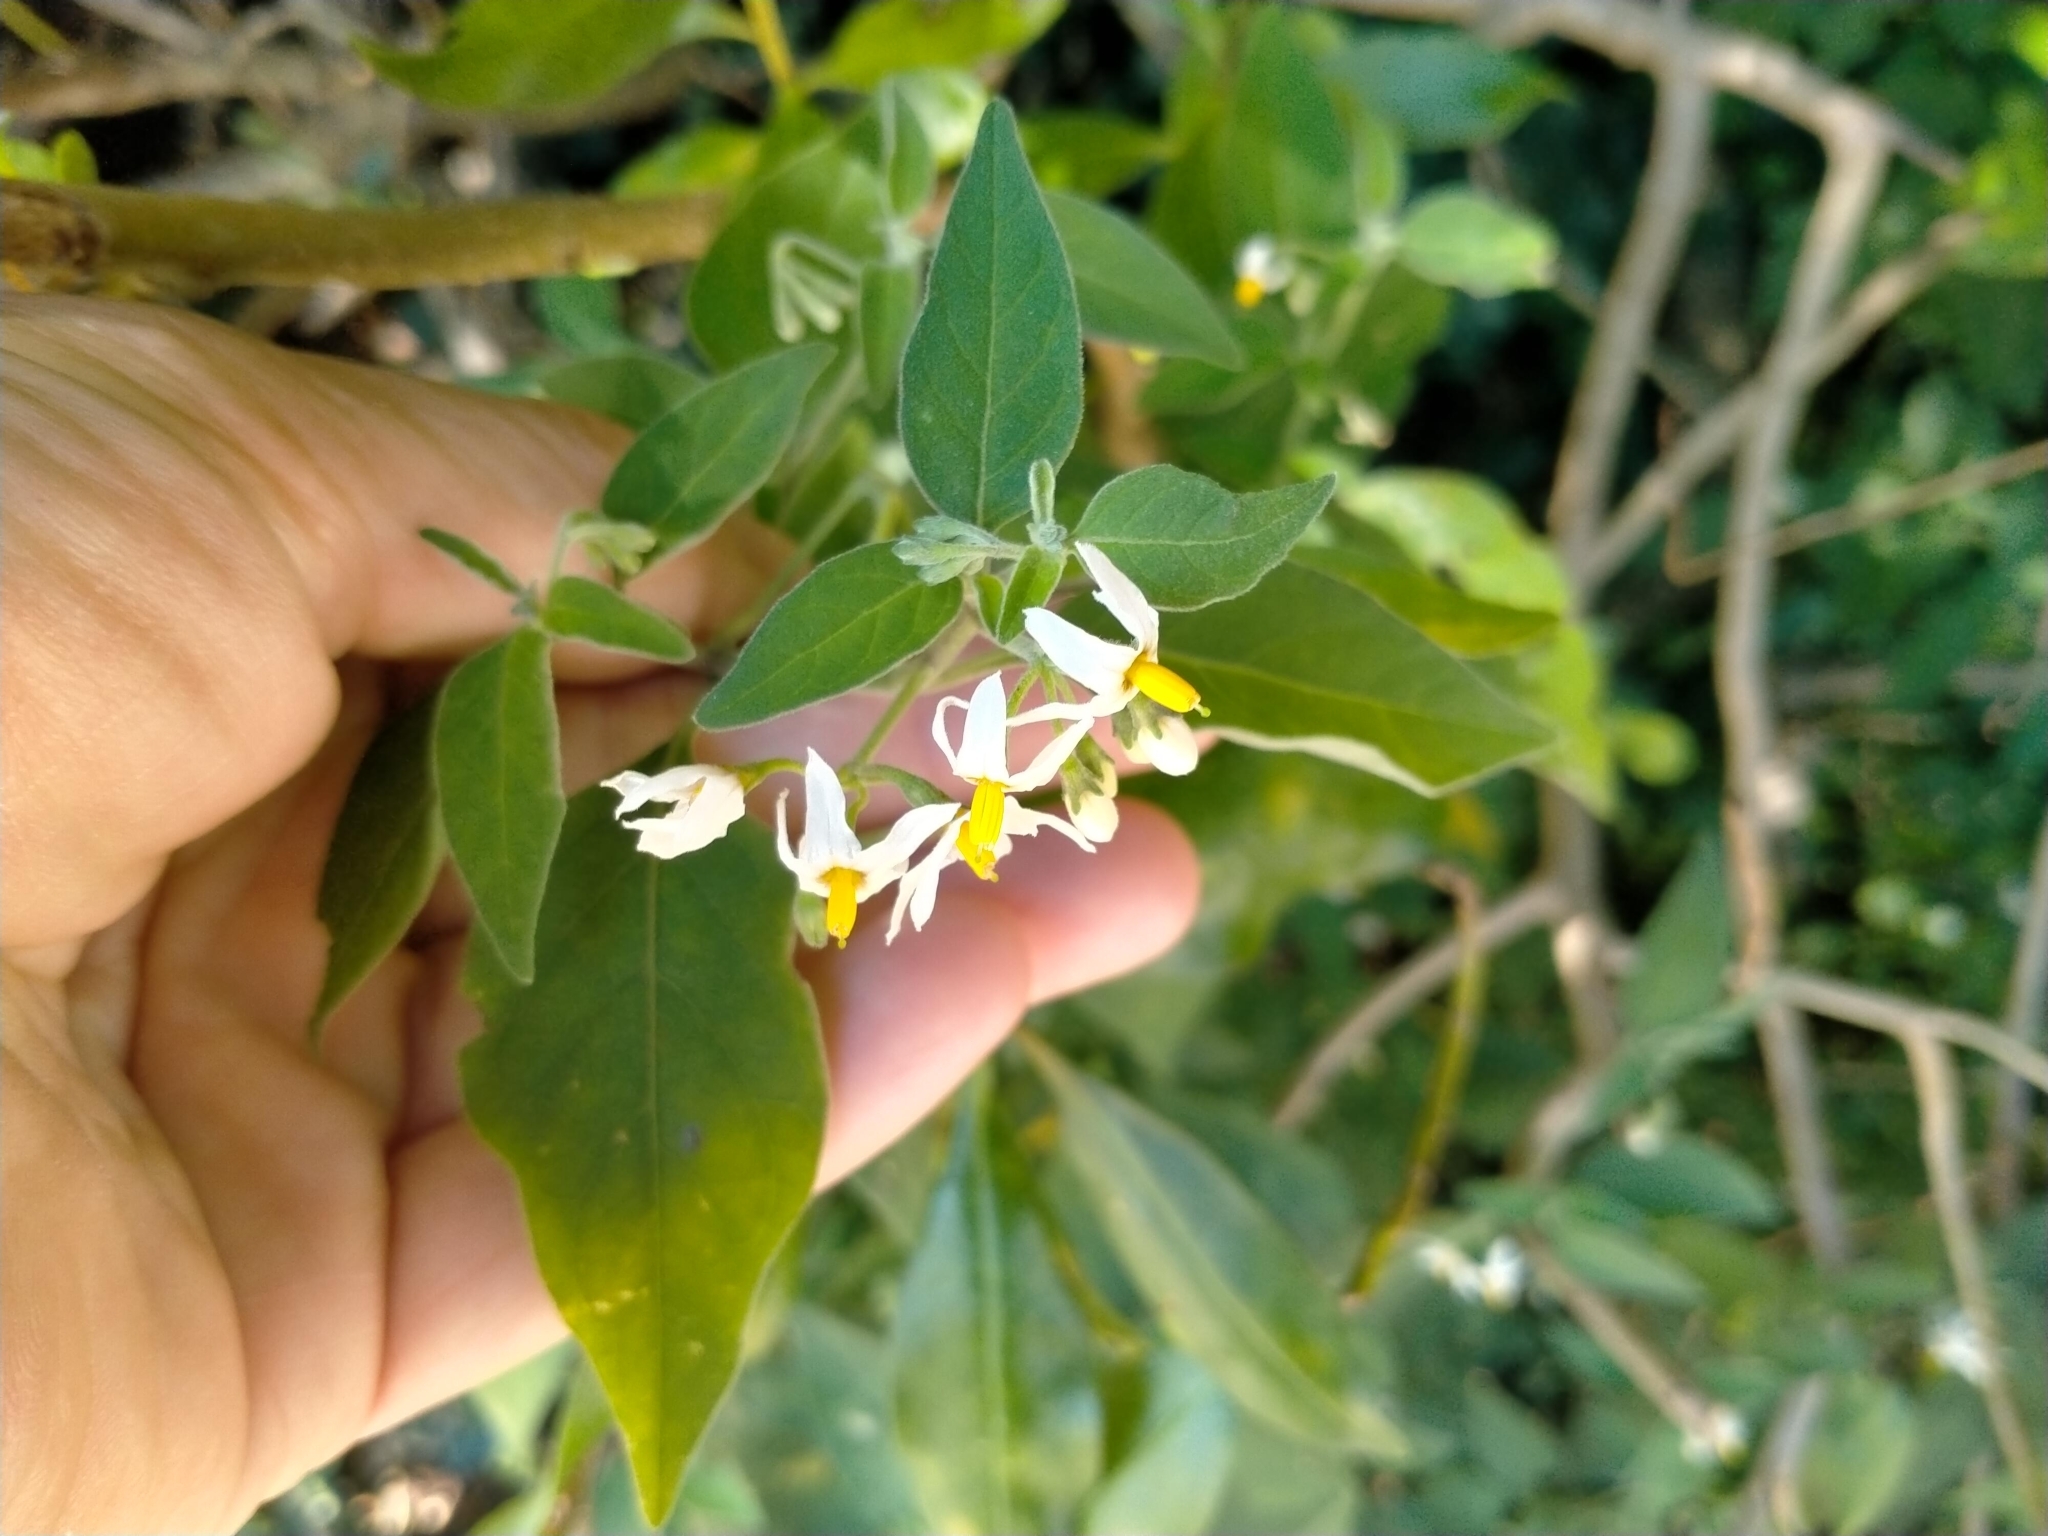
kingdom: Plantae
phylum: Tracheophyta
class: Magnoliopsida
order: Solanales
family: Solanaceae
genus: Solanum
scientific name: Solanum chenopodioides
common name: Tall nightshade
